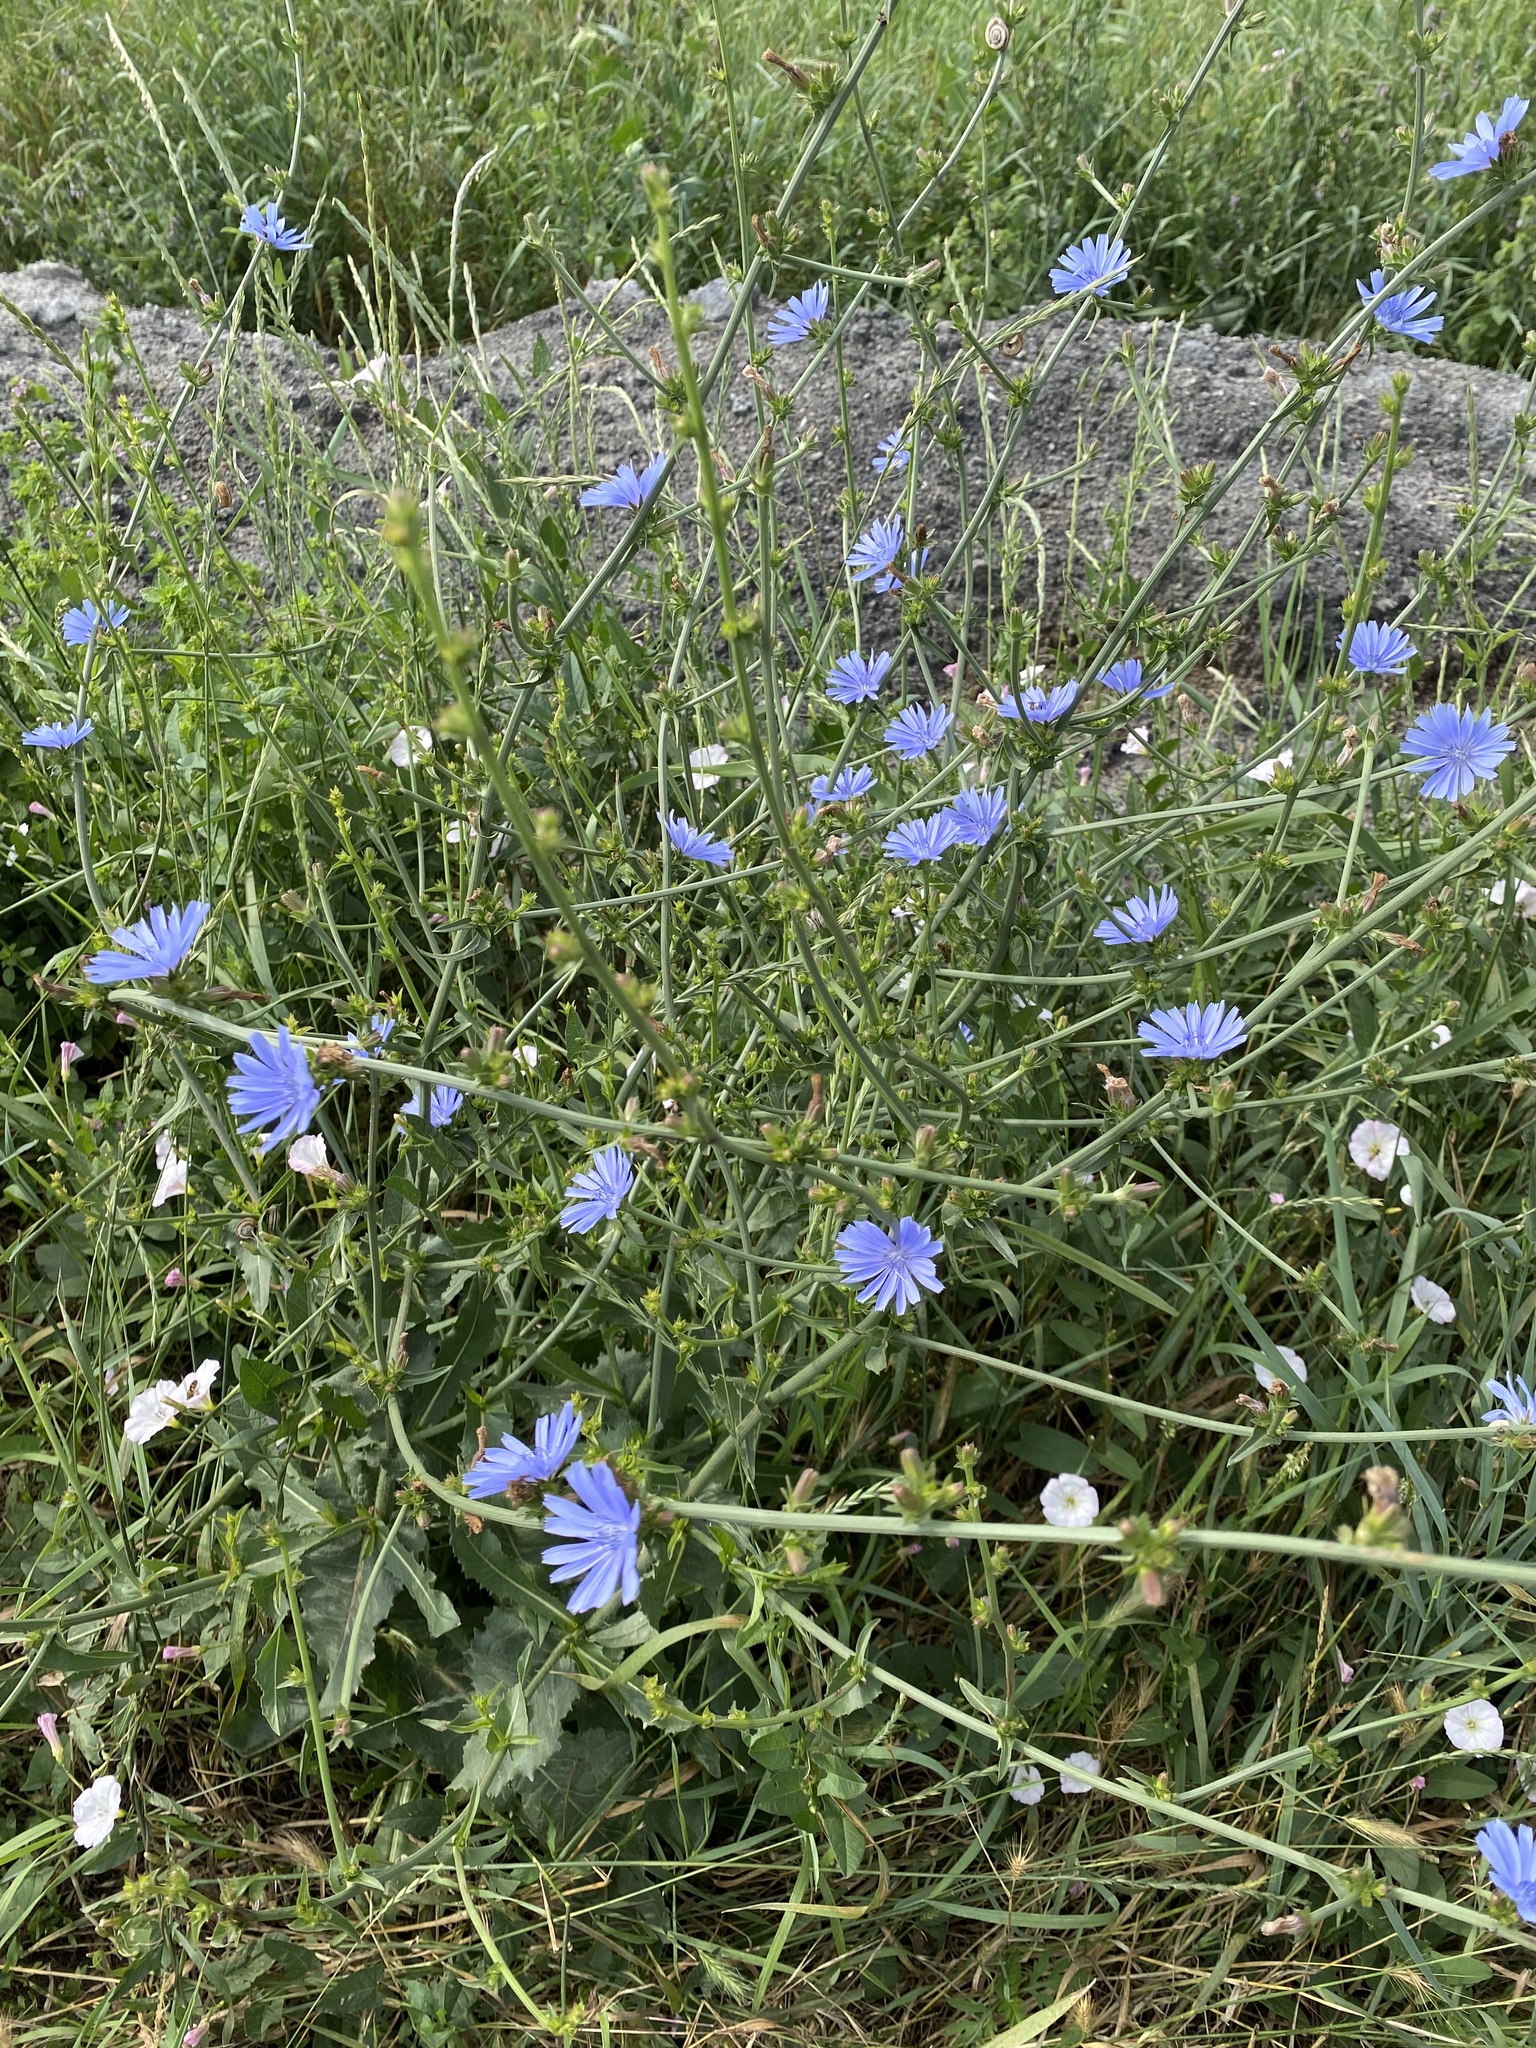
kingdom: Plantae
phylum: Tracheophyta
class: Magnoliopsida
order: Asterales
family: Asteraceae
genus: Cichorium
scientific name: Cichorium intybus
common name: Chicory
